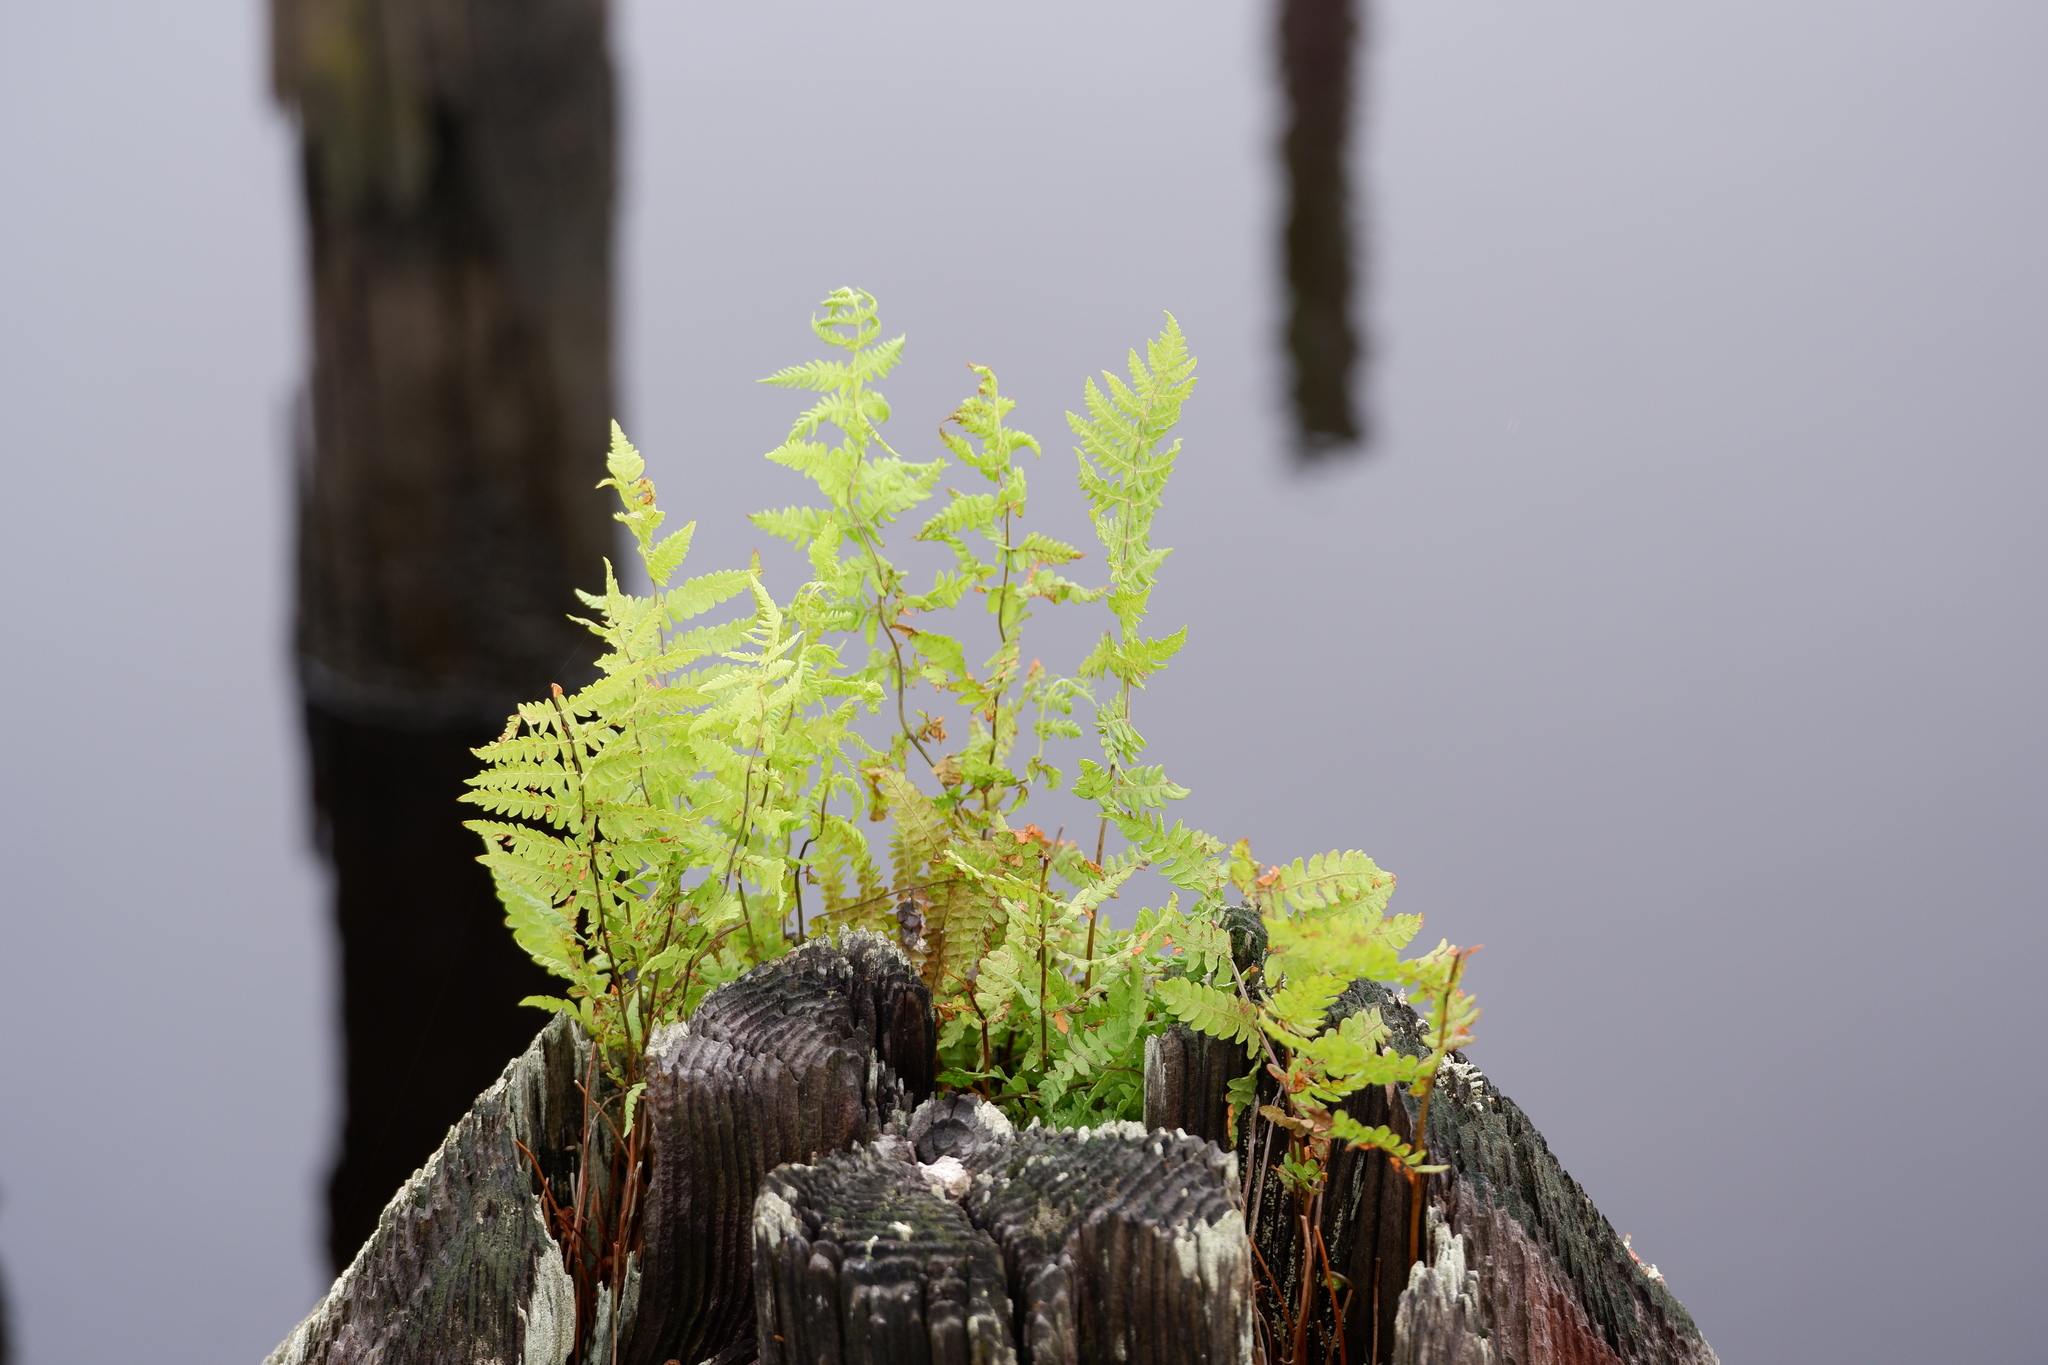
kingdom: Plantae
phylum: Tracheophyta
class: Polypodiopsida
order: Polypodiales
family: Thelypteridaceae
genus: Thelypteris
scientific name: Thelypteris palustris
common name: Marsh fern
